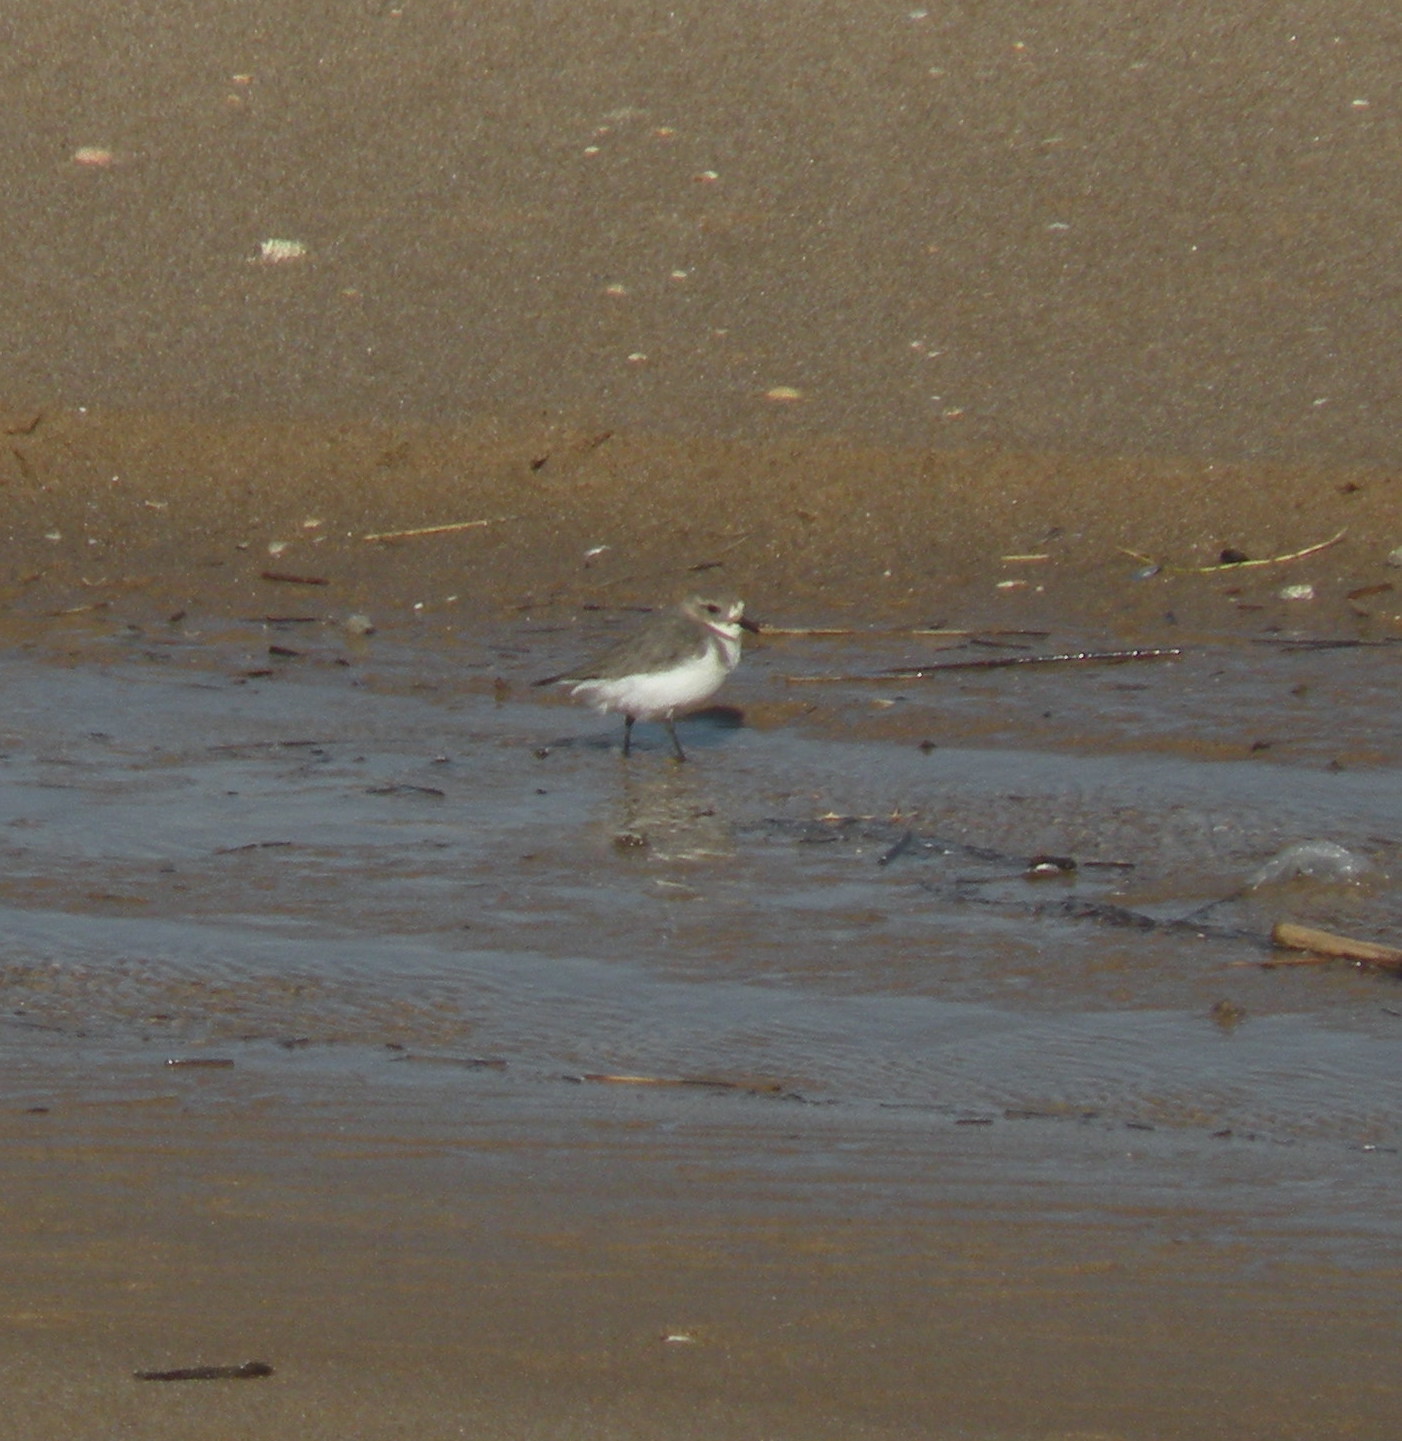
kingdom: Animalia
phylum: Chordata
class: Aves
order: Charadriiformes
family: Charadriidae
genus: Anarhynchus
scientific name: Anarhynchus
